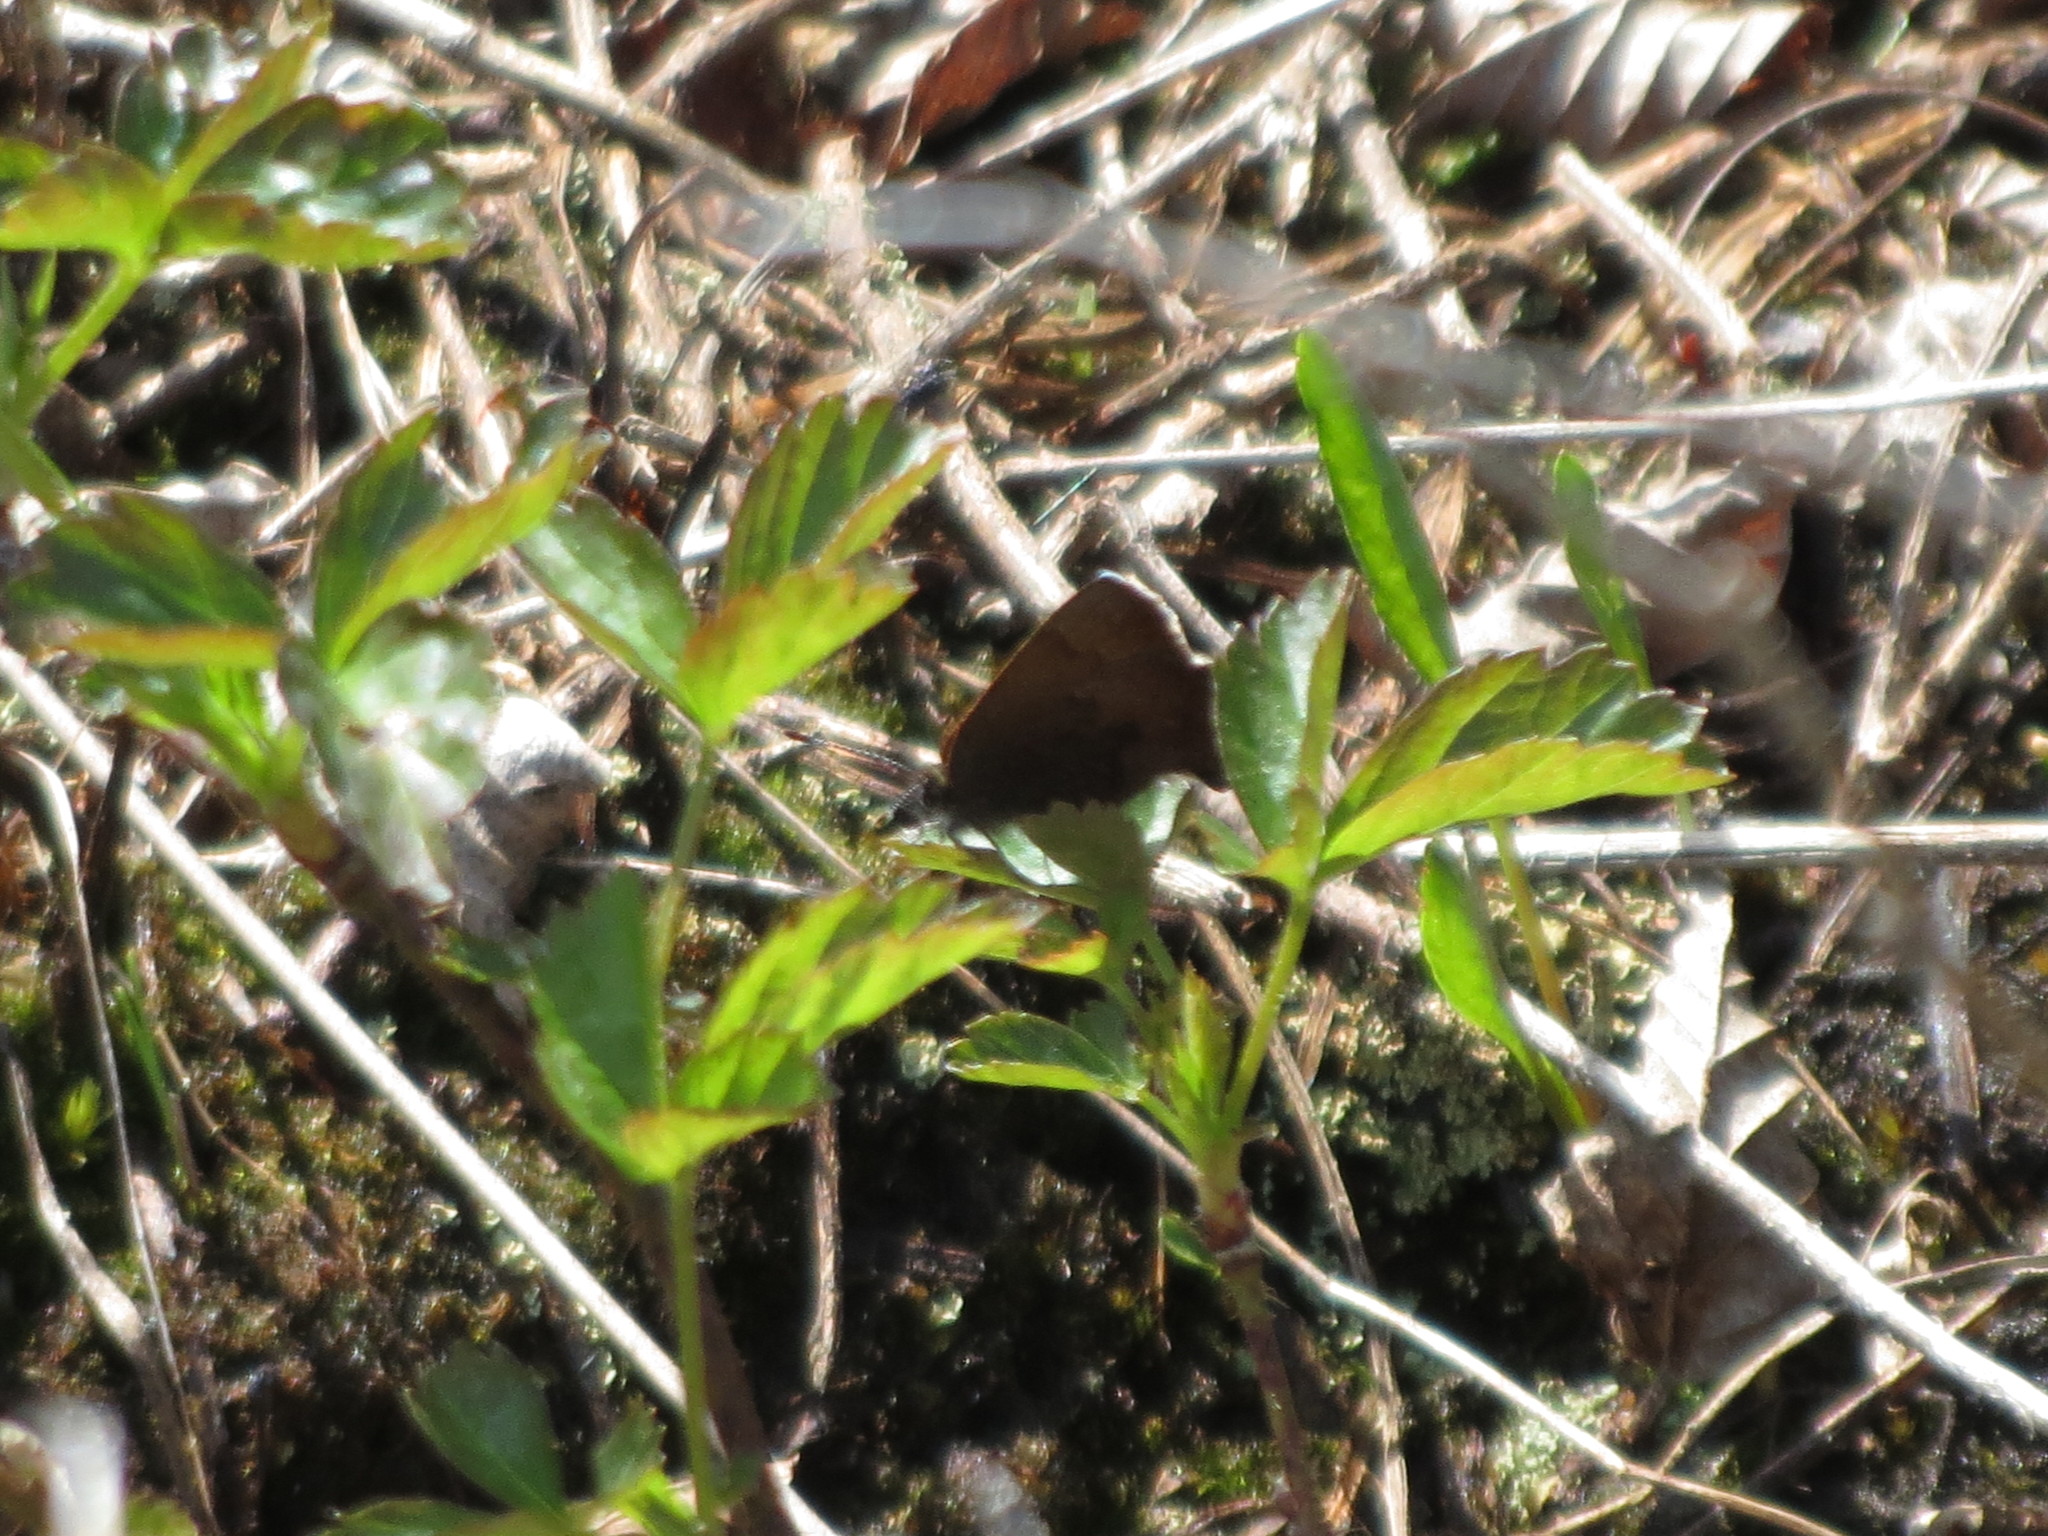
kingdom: Animalia
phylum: Arthropoda
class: Insecta
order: Lepidoptera
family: Lycaenidae
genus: Incisalia
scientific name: Incisalia irioides
